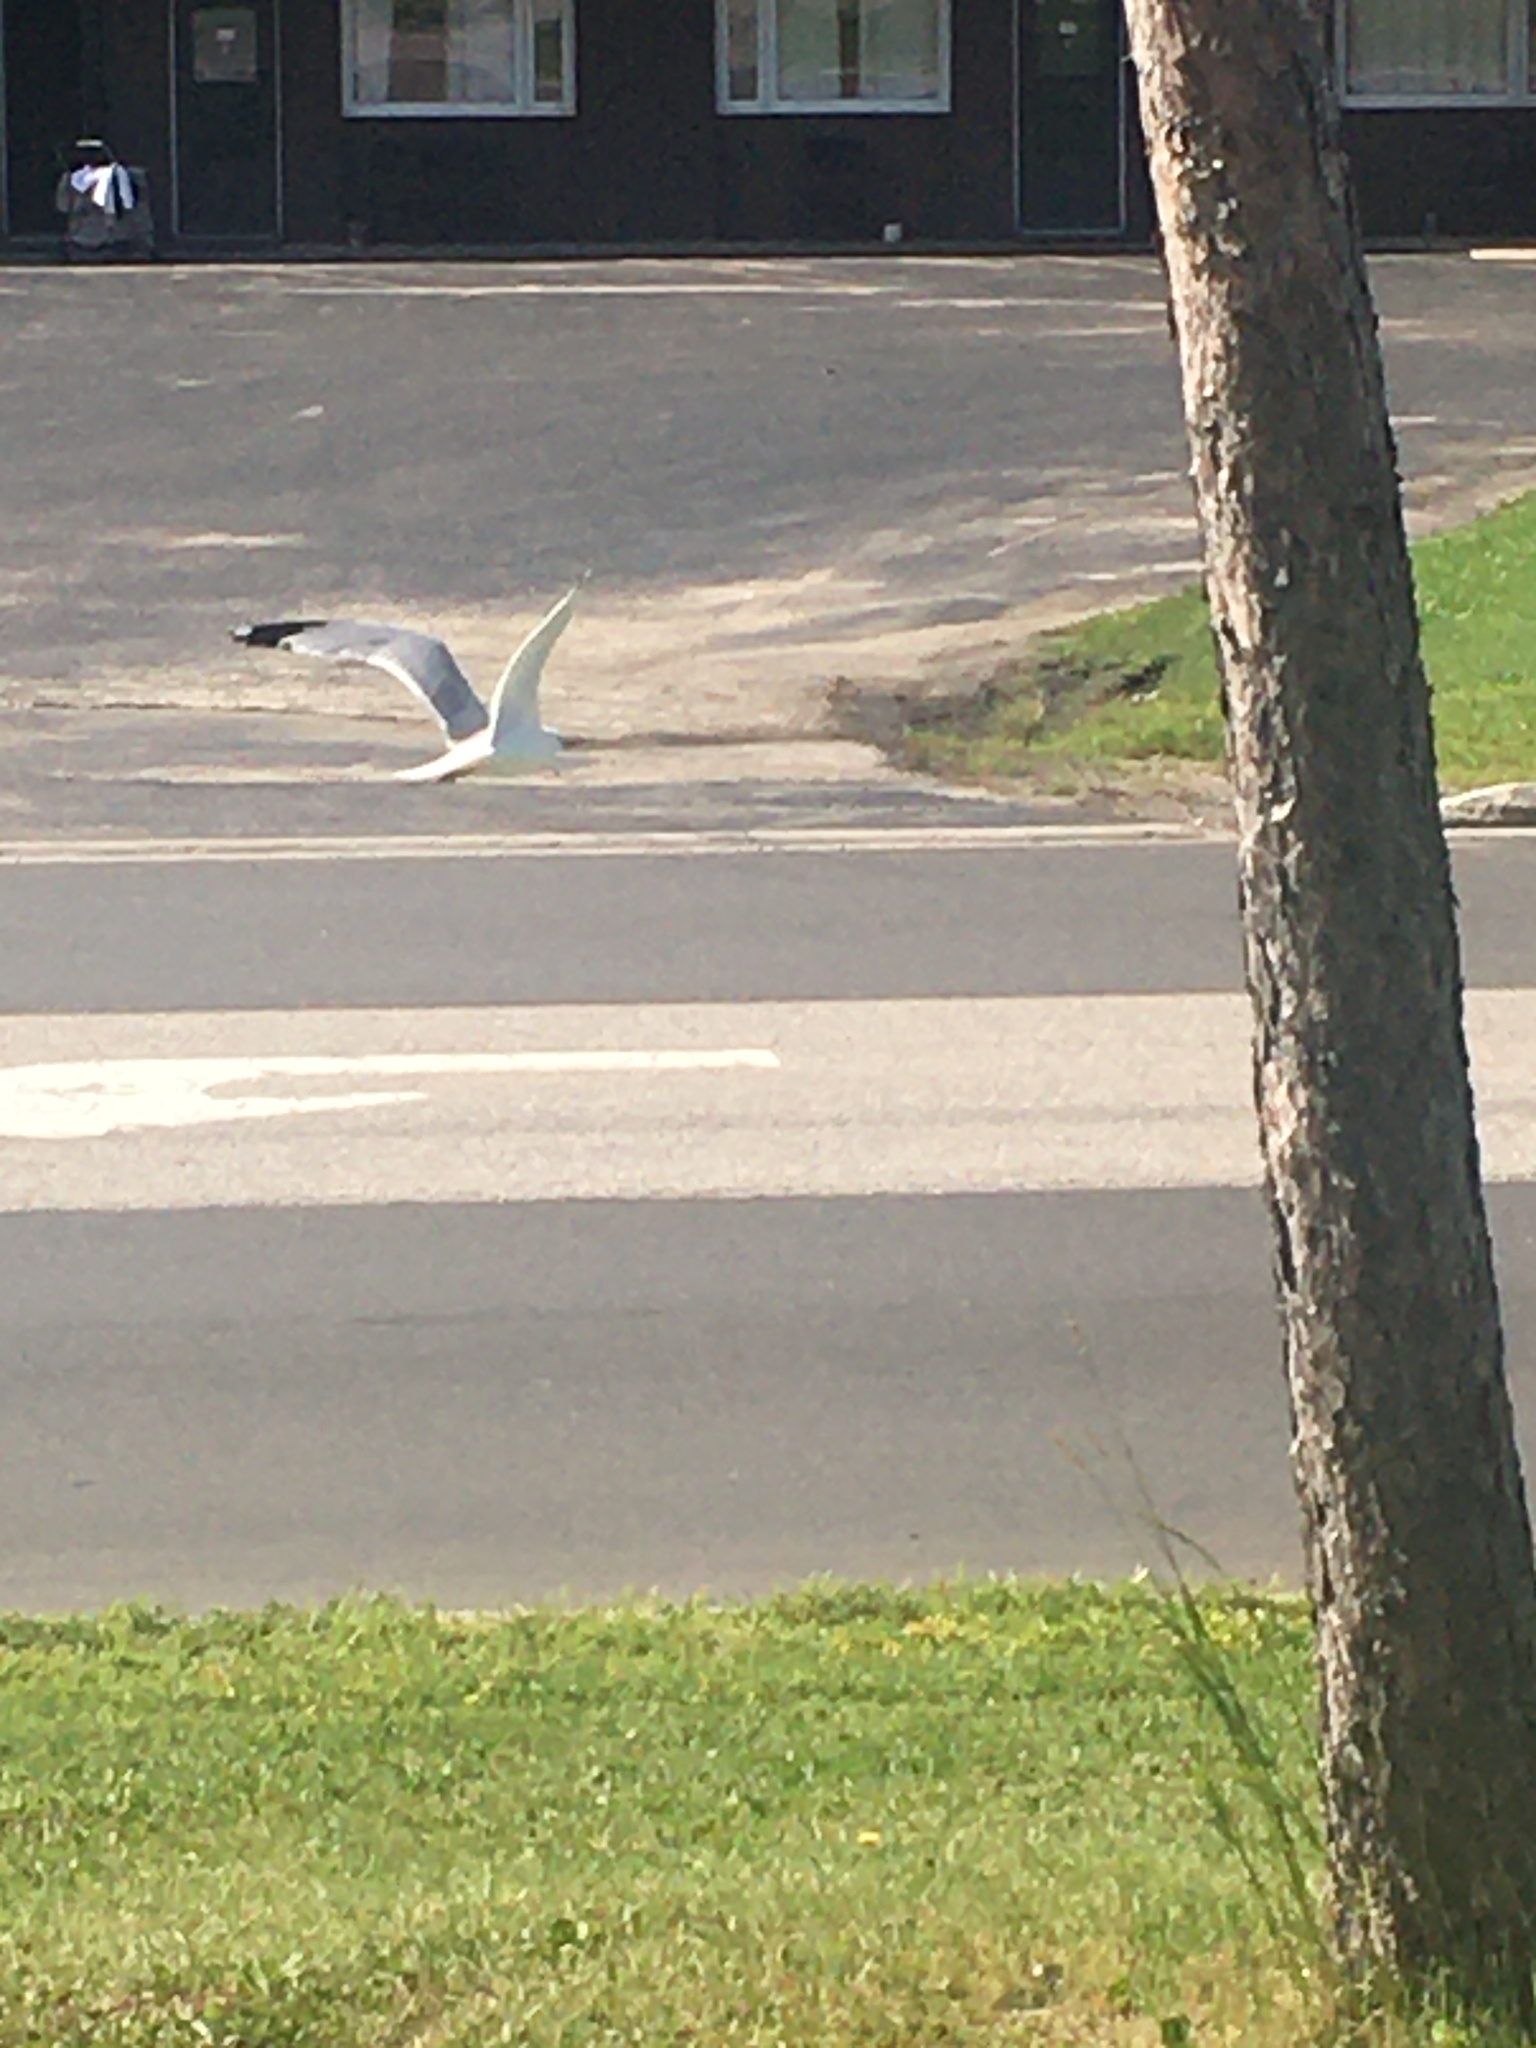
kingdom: Animalia
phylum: Chordata
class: Aves
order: Charadriiformes
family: Laridae
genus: Larus
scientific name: Larus delawarensis
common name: Ring-billed gull
